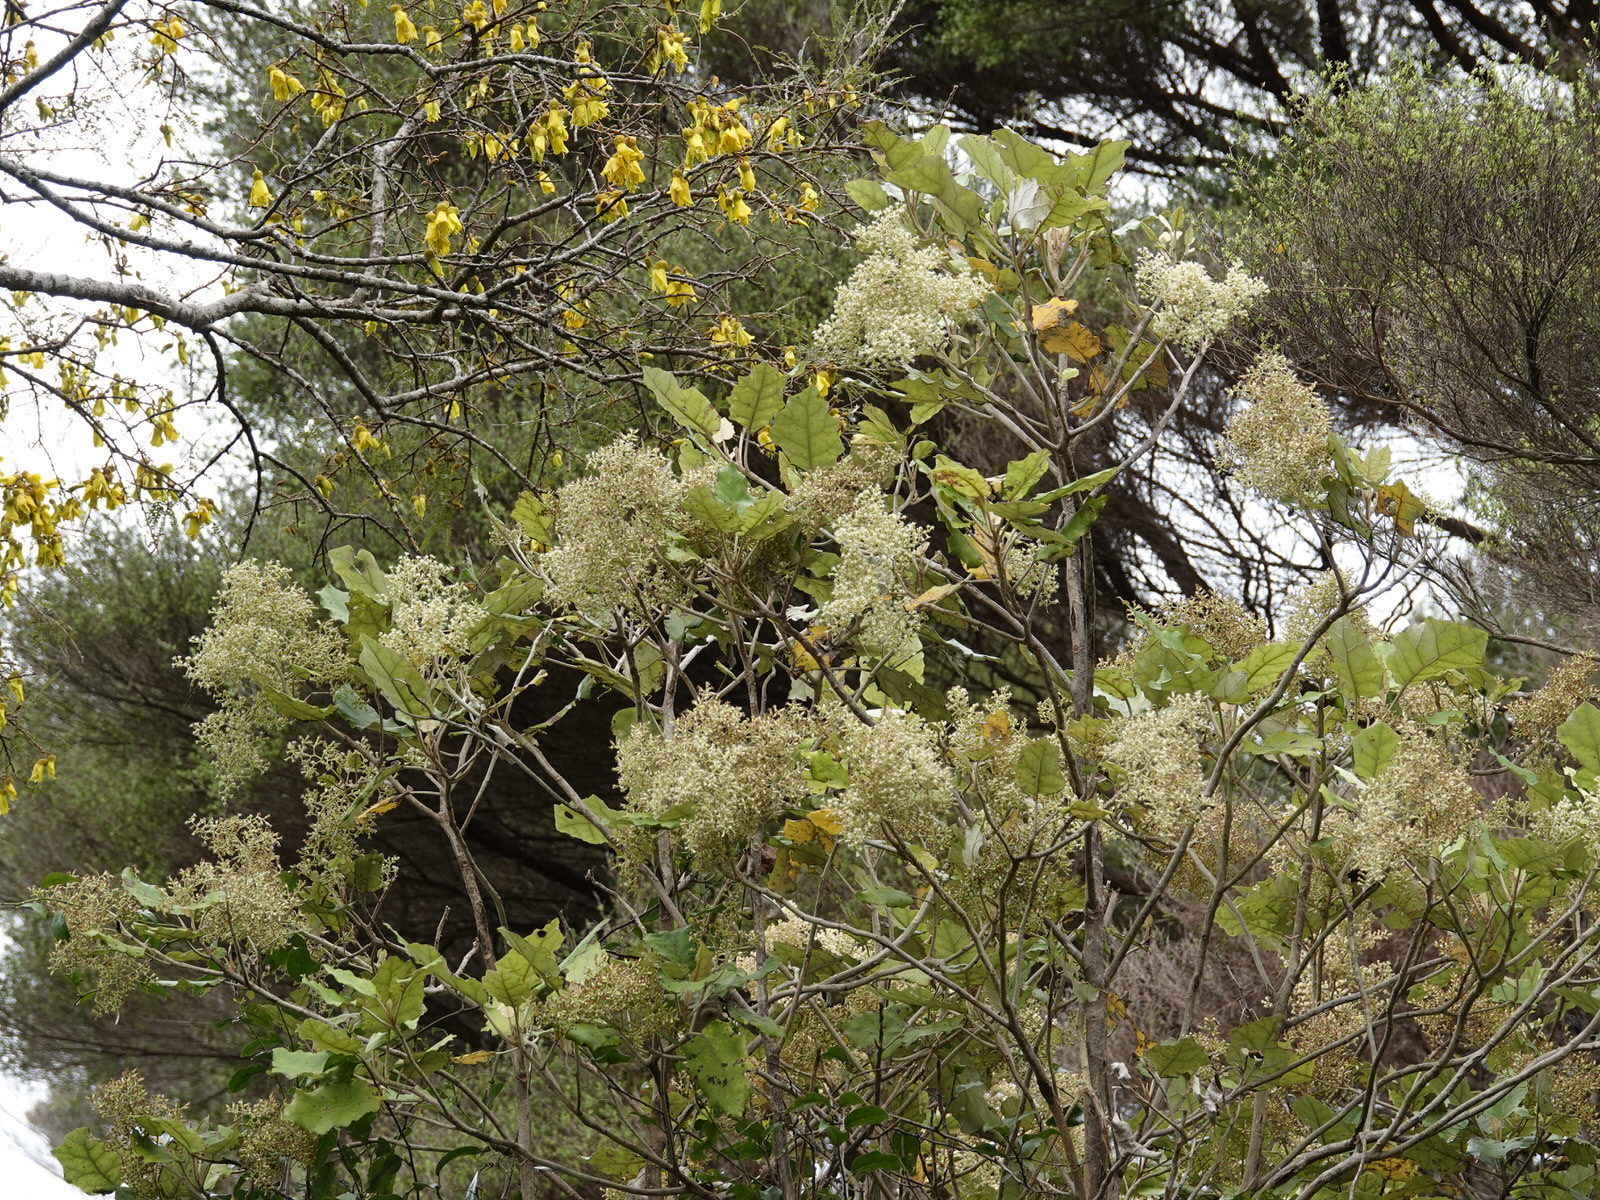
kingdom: Plantae
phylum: Tracheophyta
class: Magnoliopsida
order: Asterales
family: Asteraceae
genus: Brachyglottis
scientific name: Brachyglottis repanda
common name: Hedge ragwort
